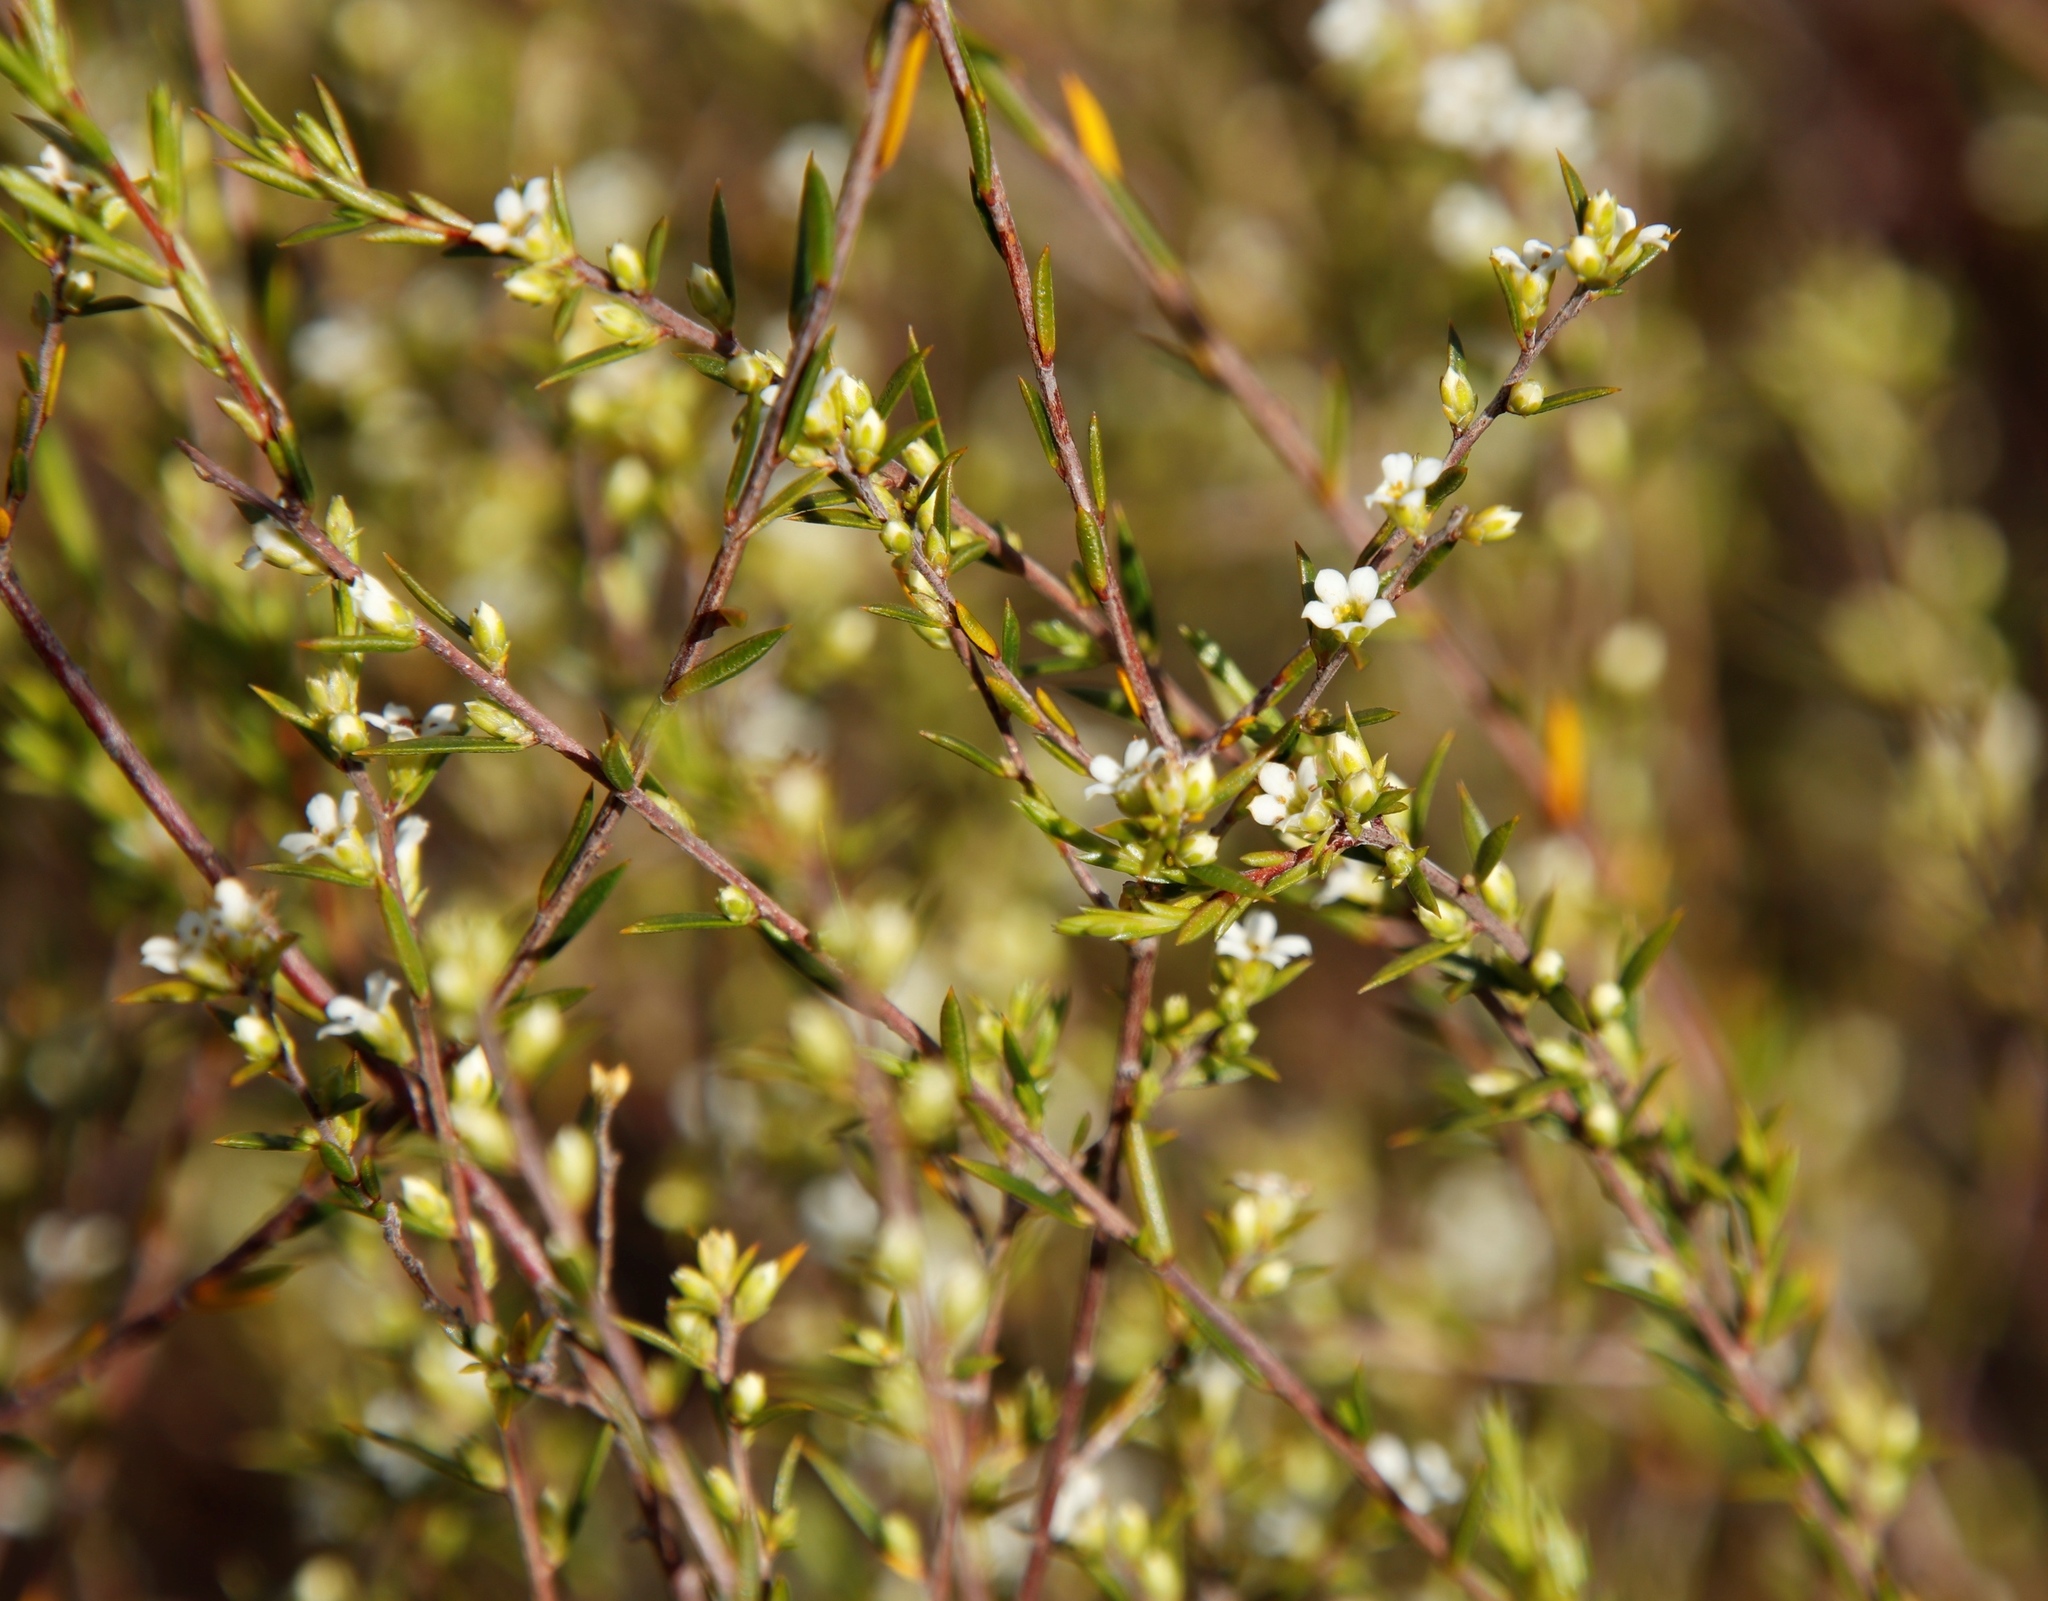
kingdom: Plantae
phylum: Tracheophyta
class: Magnoliopsida
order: Sapindales
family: Rutaceae
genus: Coleonema
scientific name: Coleonema juniperinum
